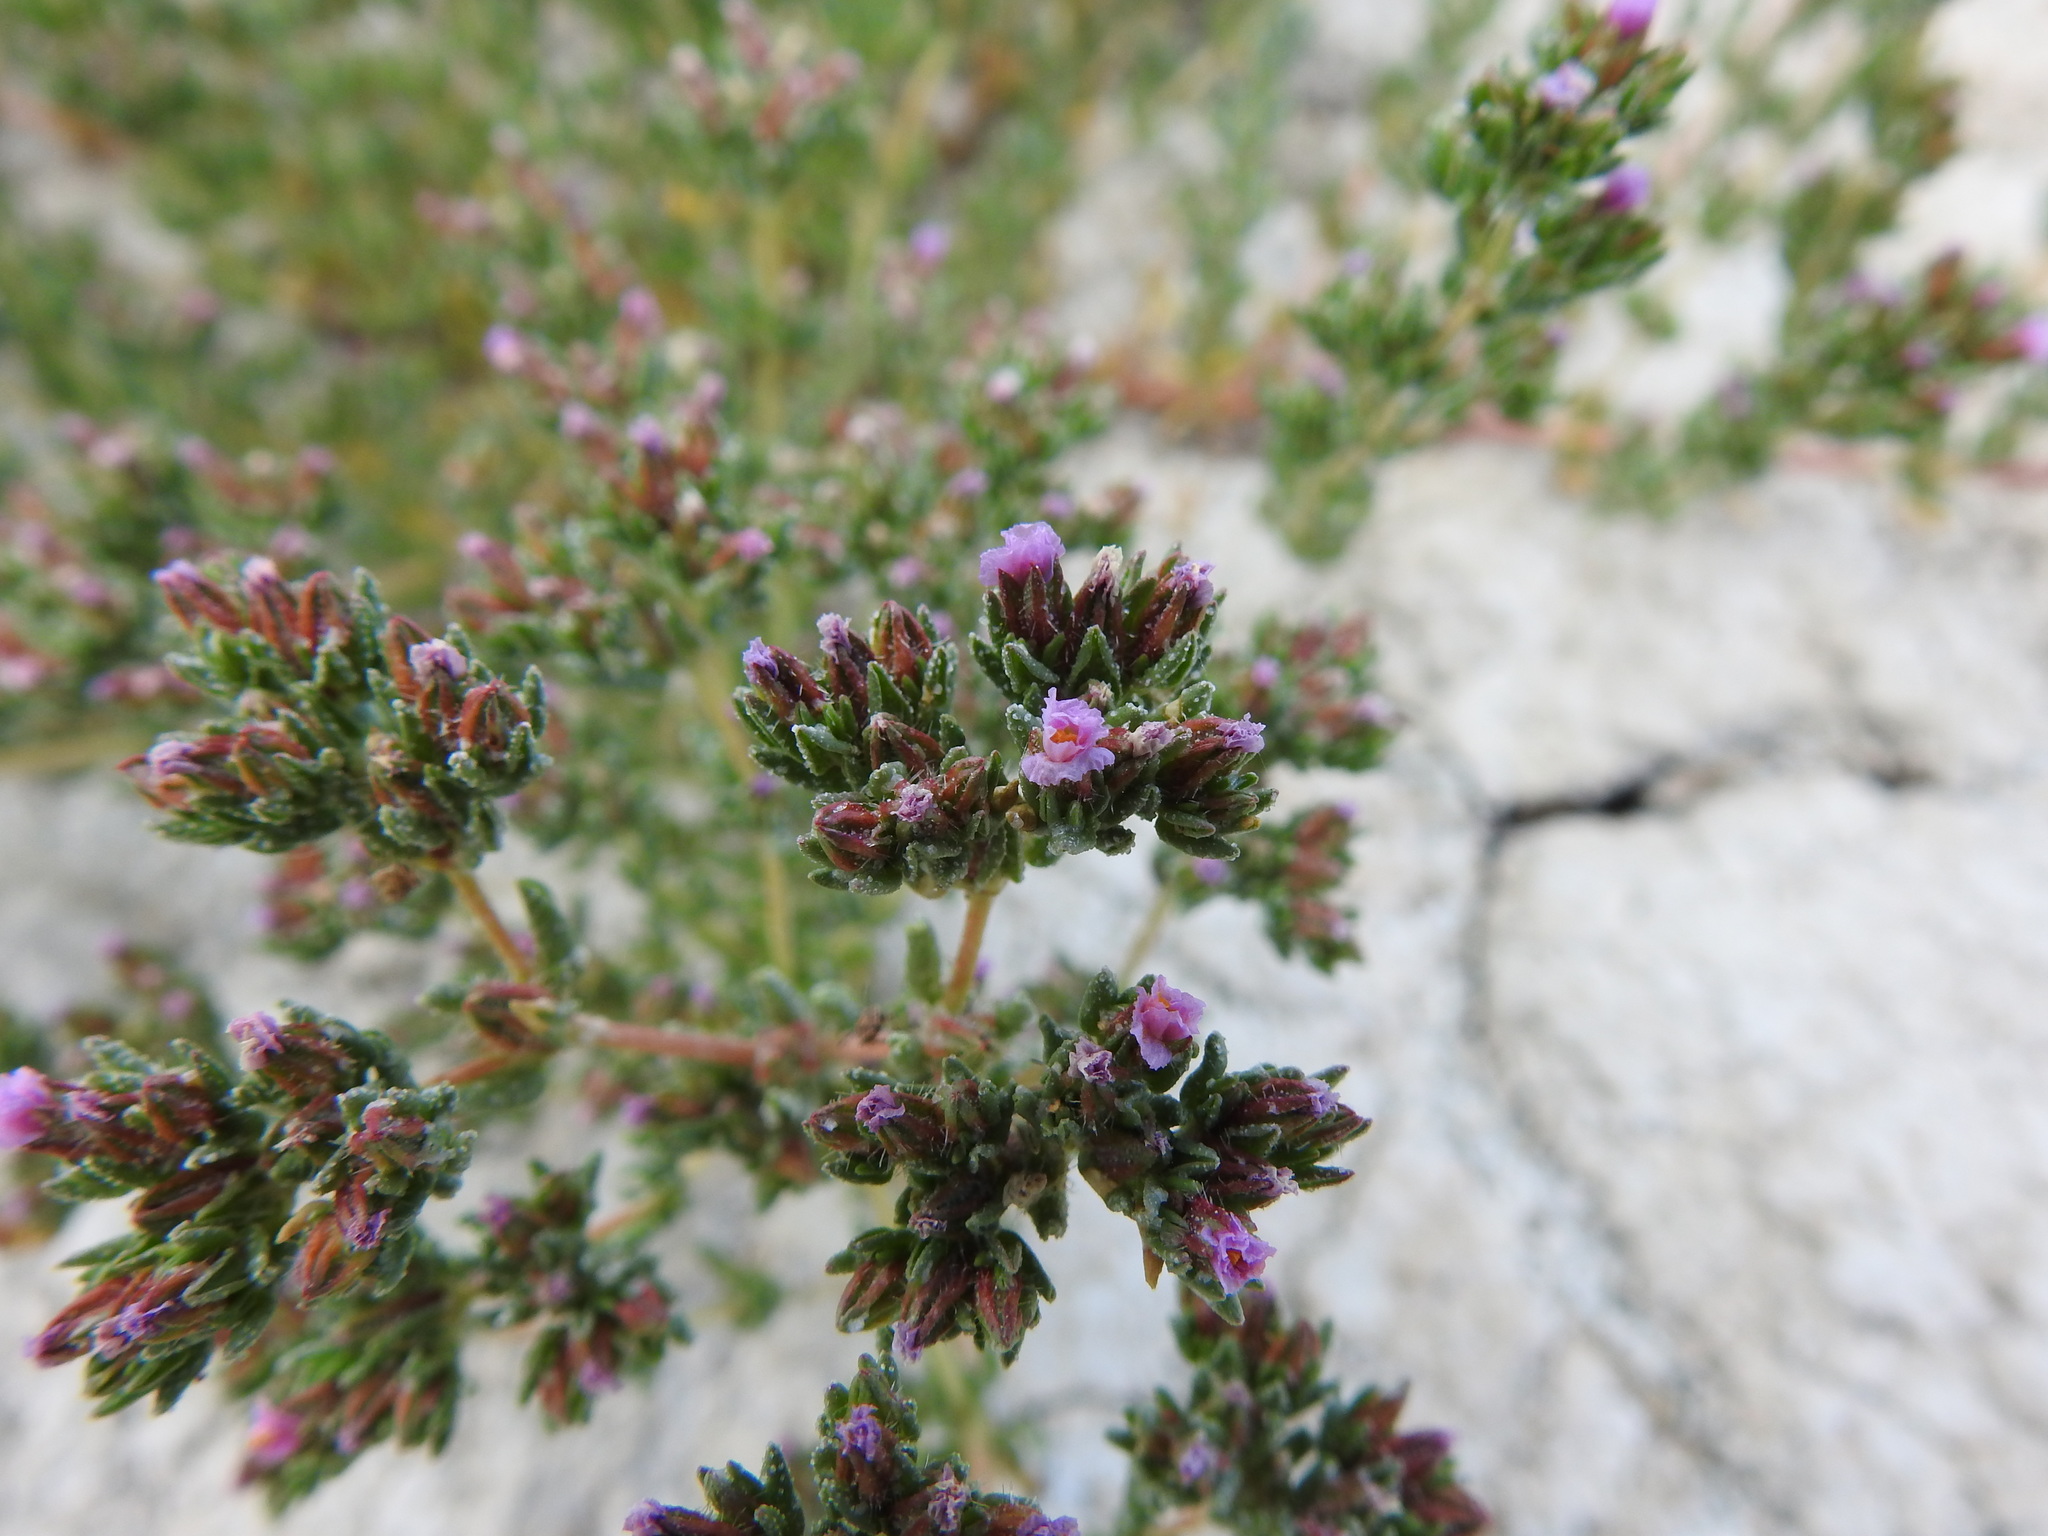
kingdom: Plantae
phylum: Tracheophyta
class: Magnoliopsida
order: Caryophyllales
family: Frankeniaceae
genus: Frankenia
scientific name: Frankenia boissieri
